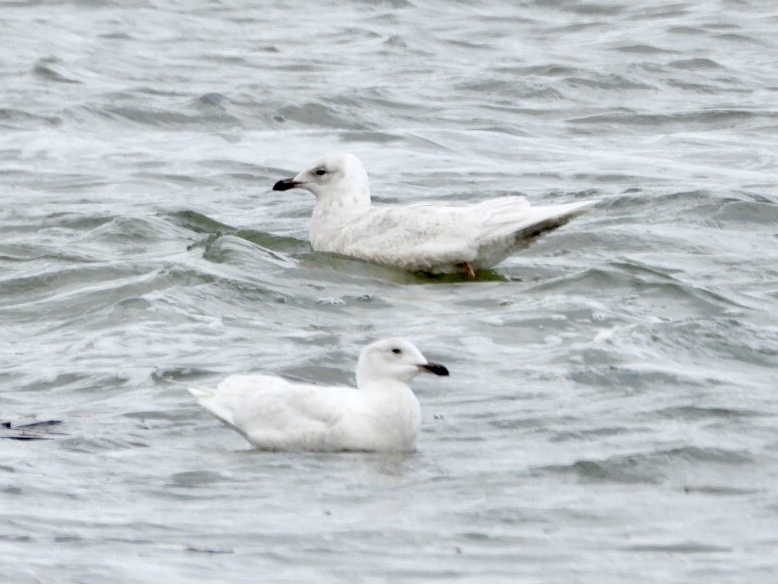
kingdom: Animalia
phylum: Chordata
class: Aves
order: Charadriiformes
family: Laridae
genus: Larus
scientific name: Larus glaucoides
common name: Iceland gull
